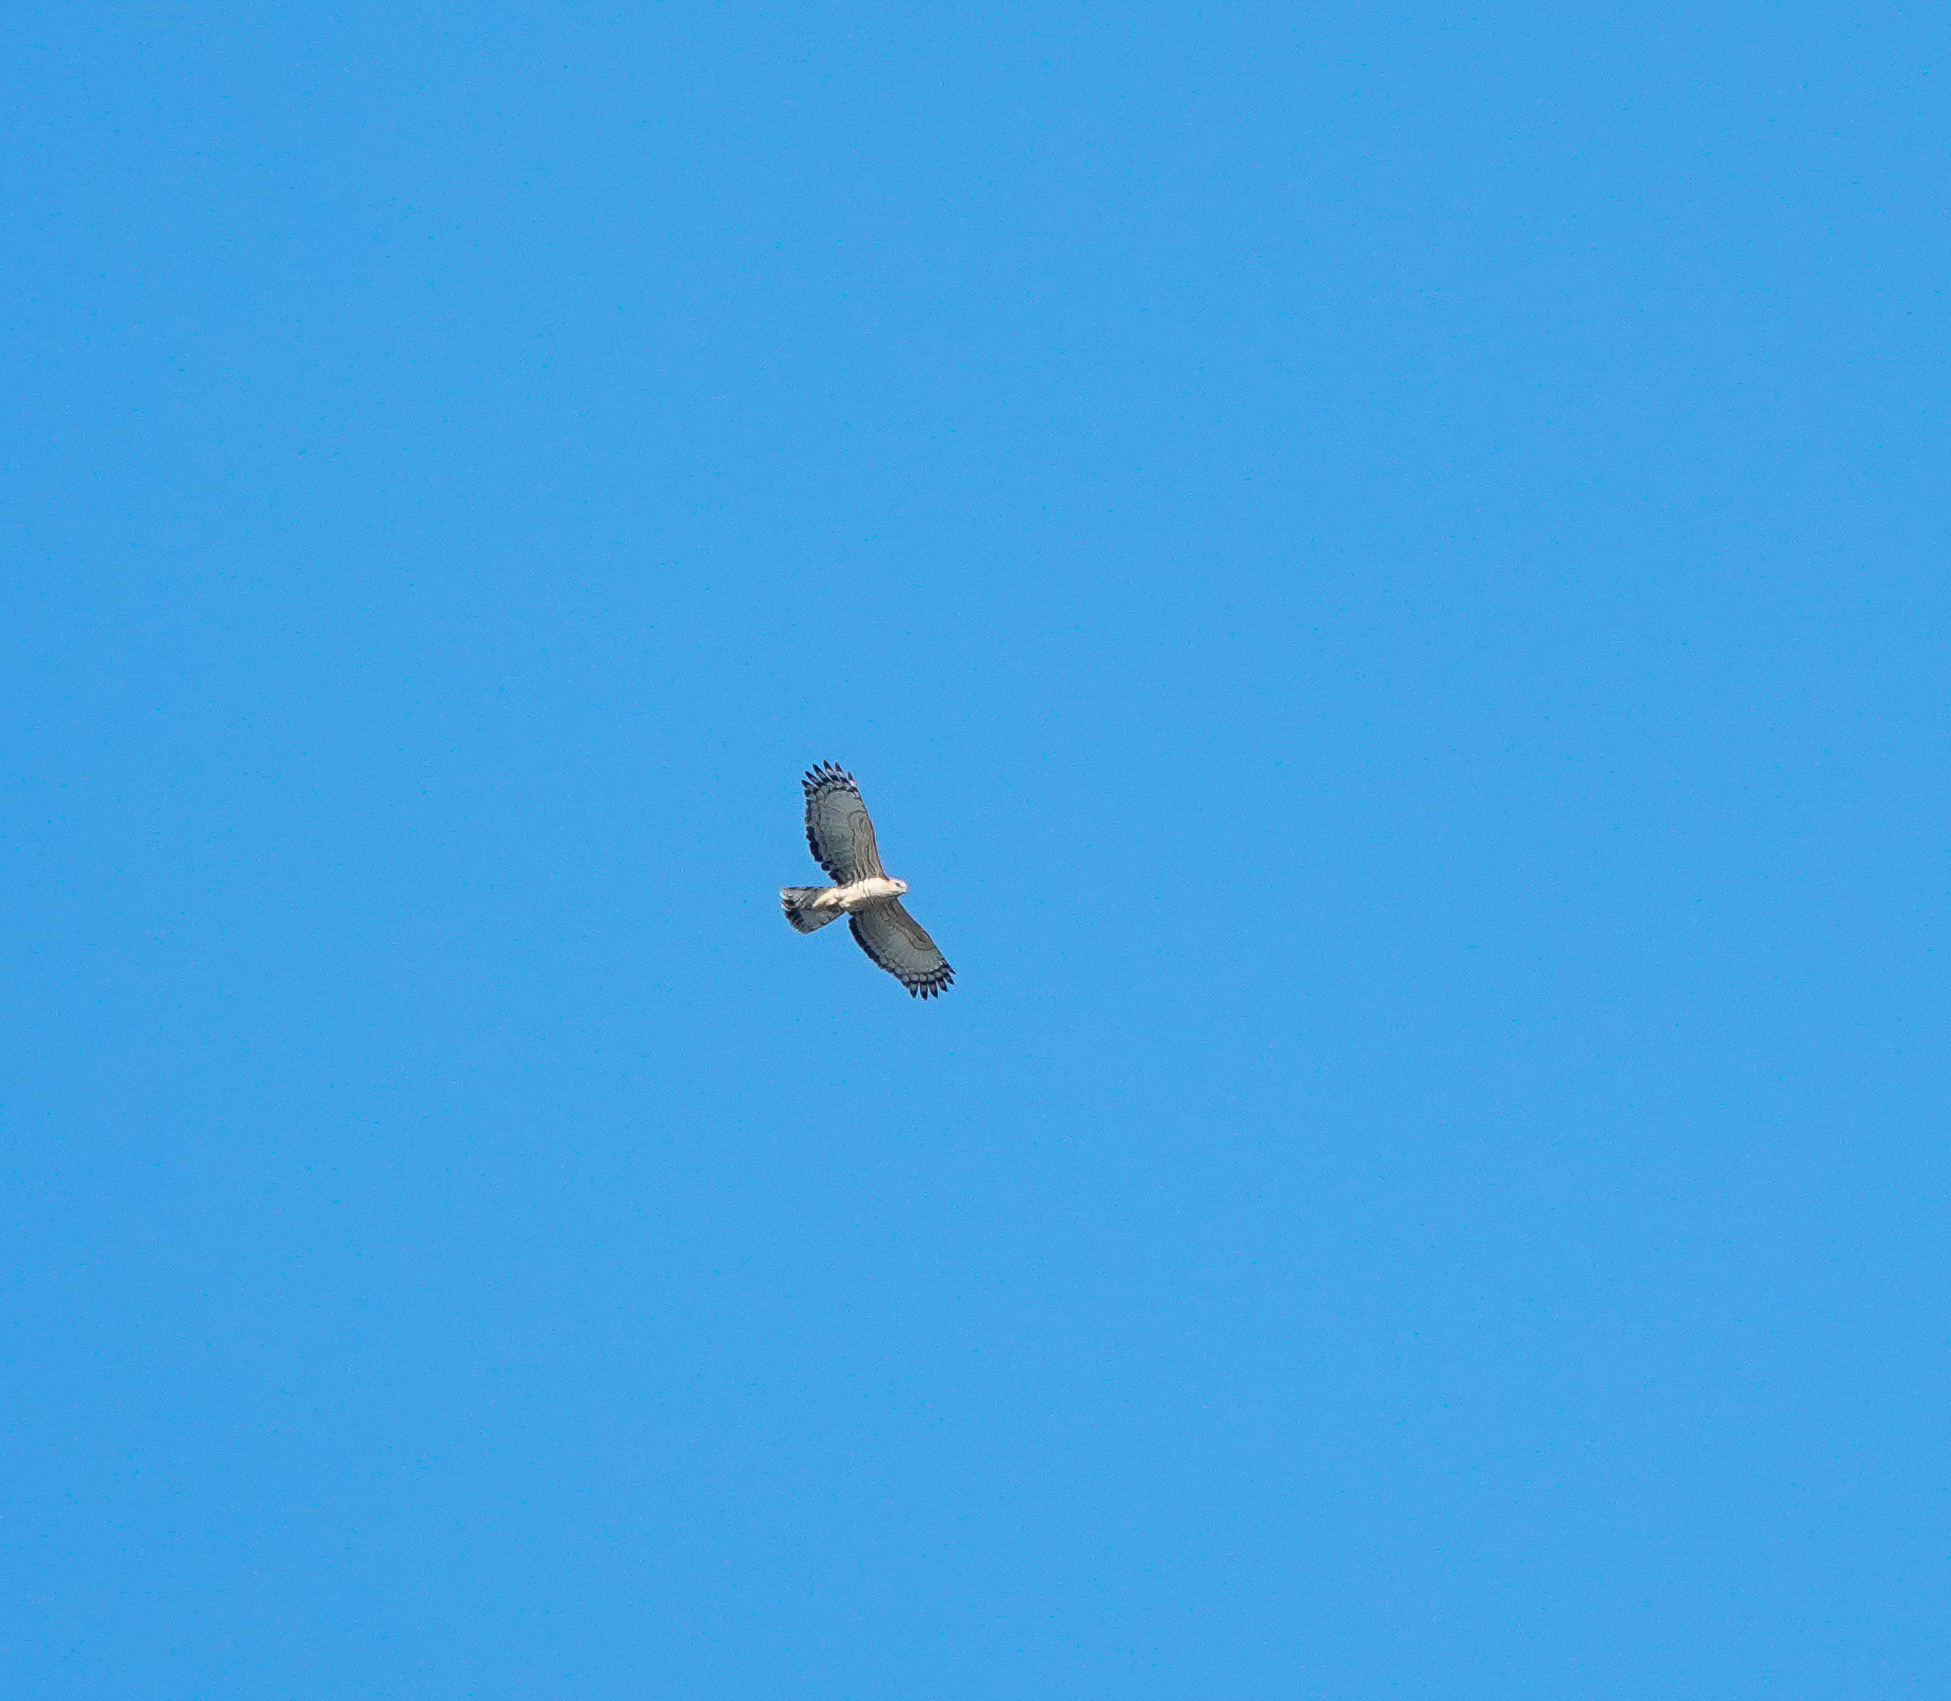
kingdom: Animalia
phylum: Chordata
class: Aves
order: Accipitriformes
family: Accipitridae
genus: Aviceda
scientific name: Aviceda jerdoni
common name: Jerdon's baza
